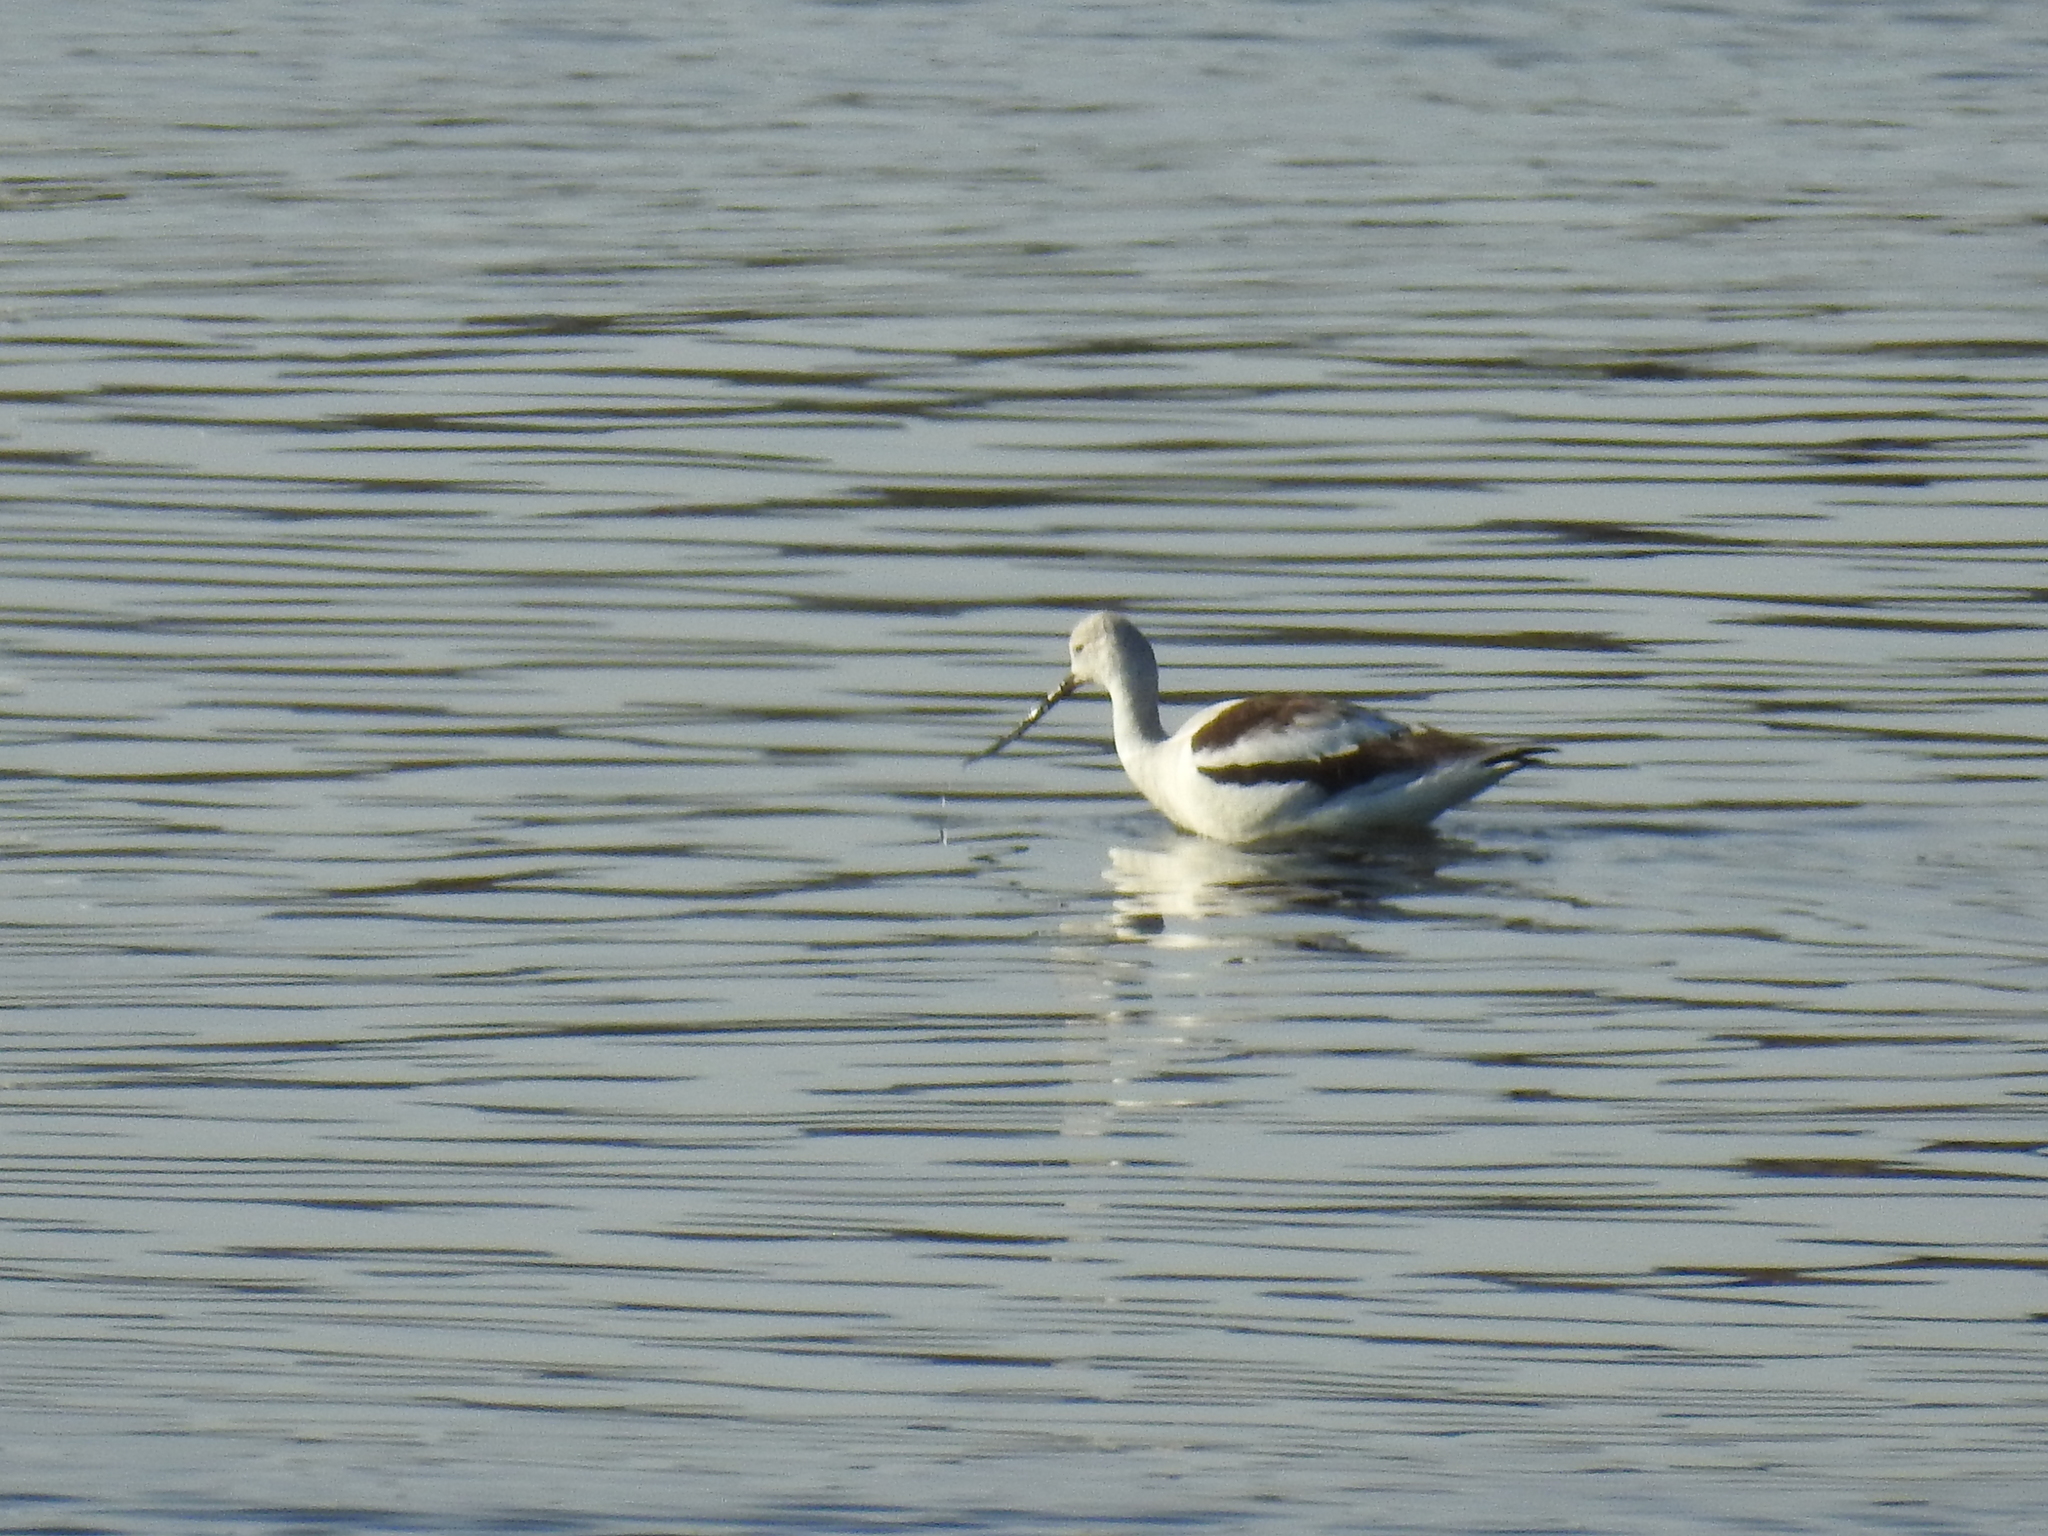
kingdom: Animalia
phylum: Chordata
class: Aves
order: Charadriiformes
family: Recurvirostridae
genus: Recurvirostra
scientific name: Recurvirostra americana
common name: American avocet
